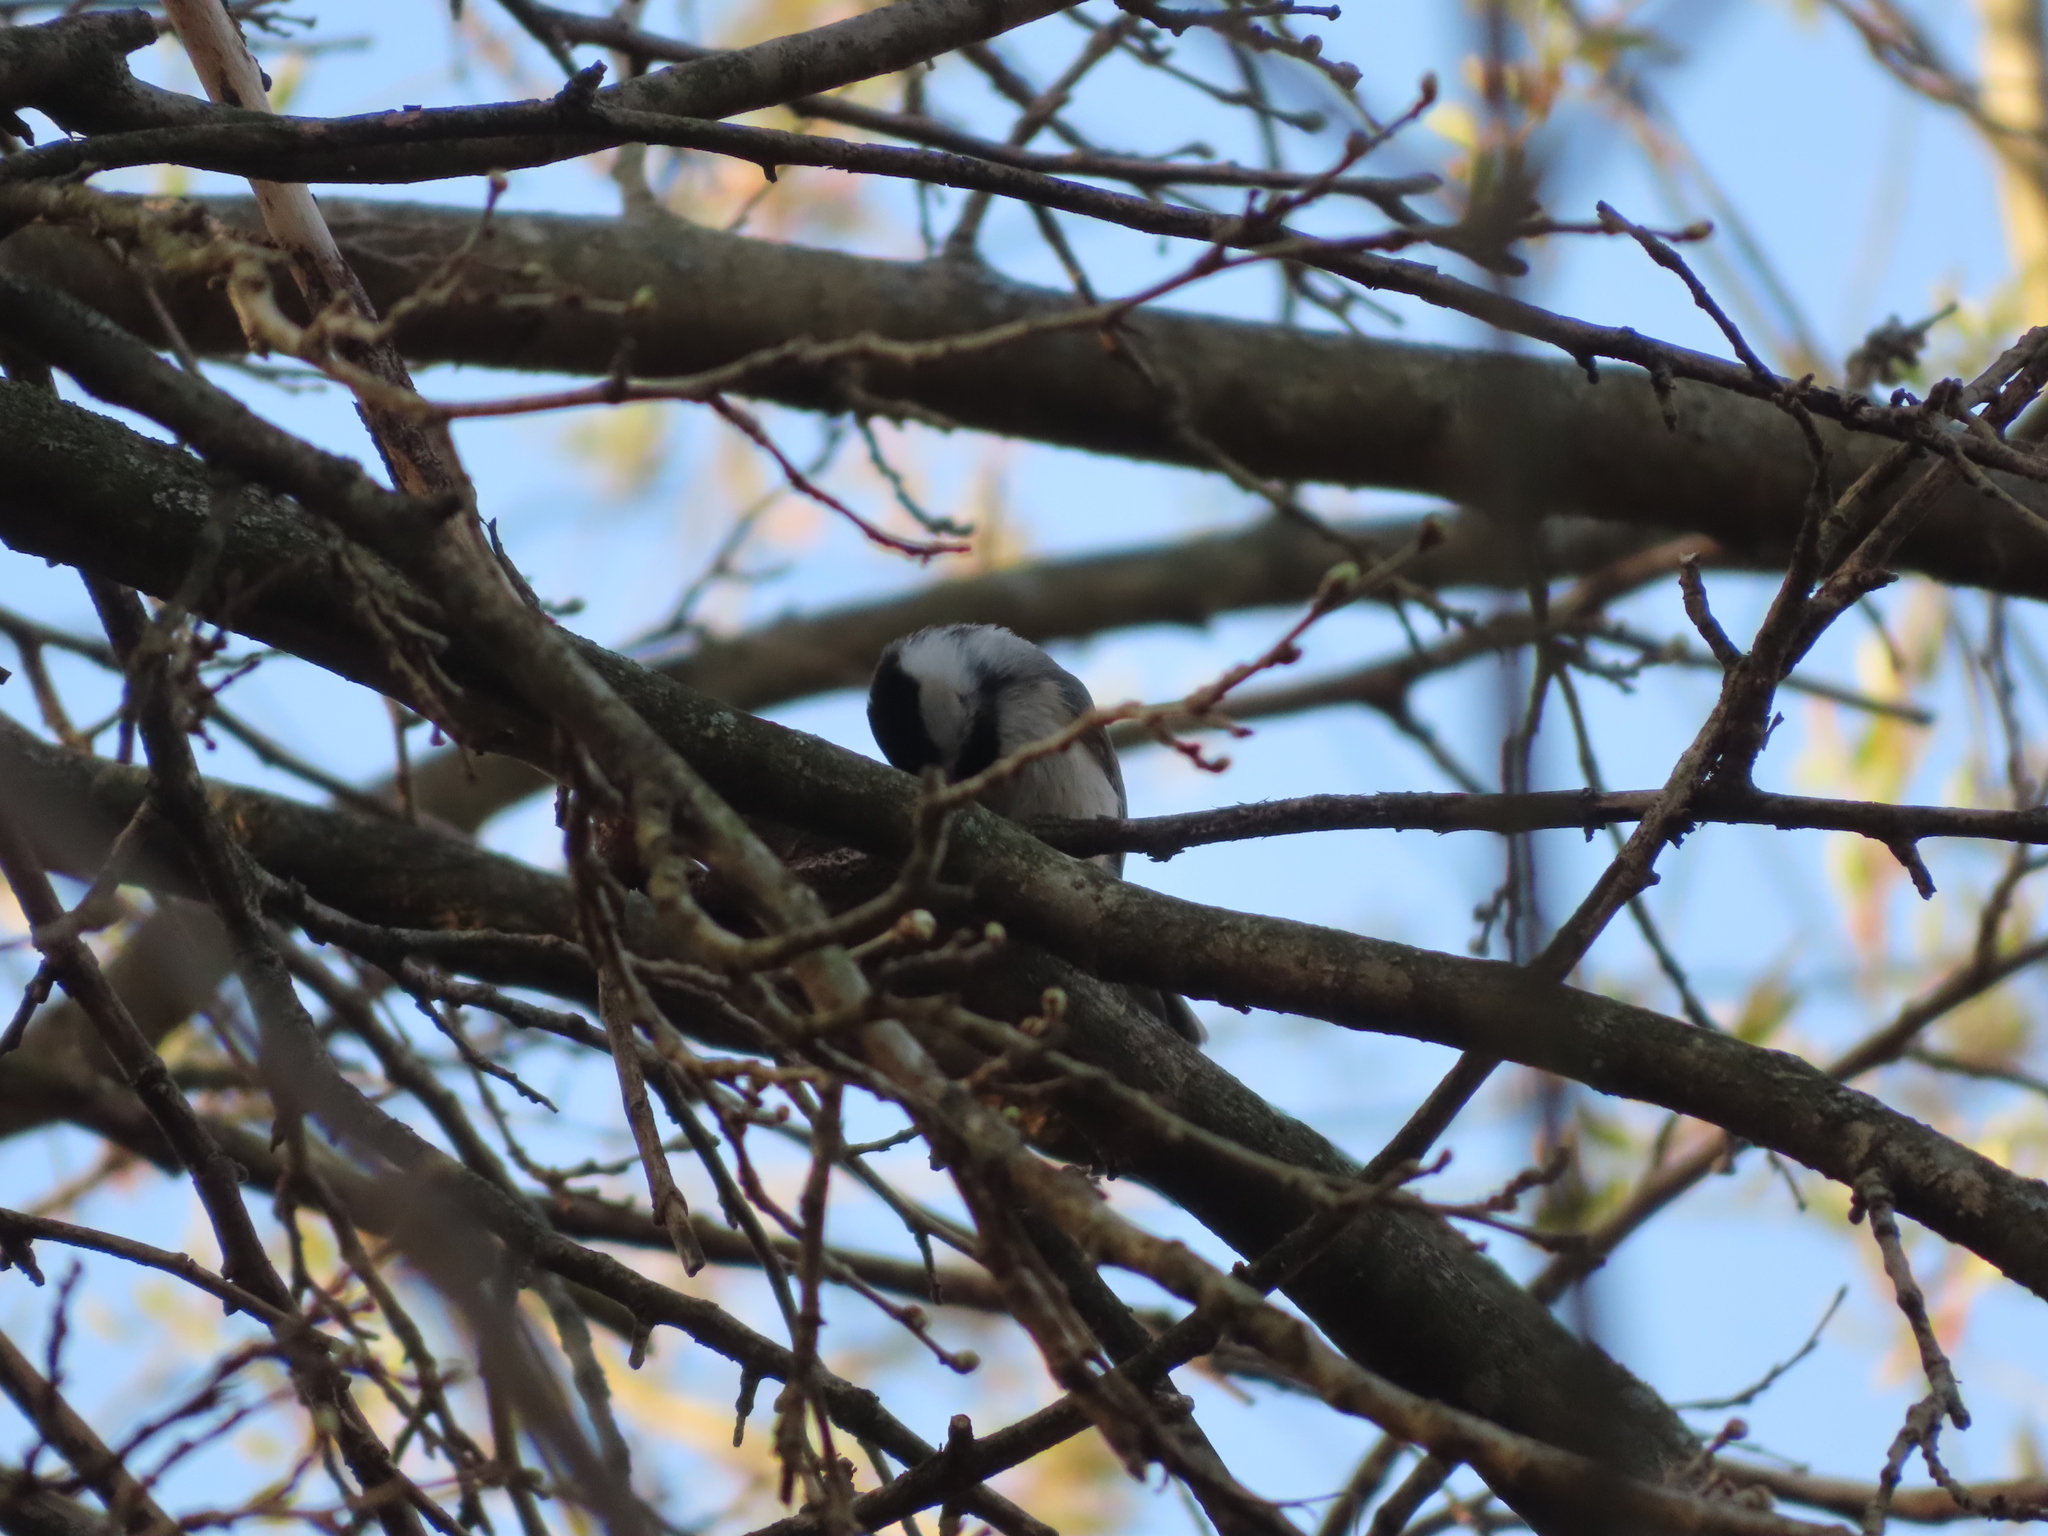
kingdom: Animalia
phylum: Chordata
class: Aves
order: Passeriformes
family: Paridae
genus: Poecile
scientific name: Poecile carolinensis
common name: Carolina chickadee
